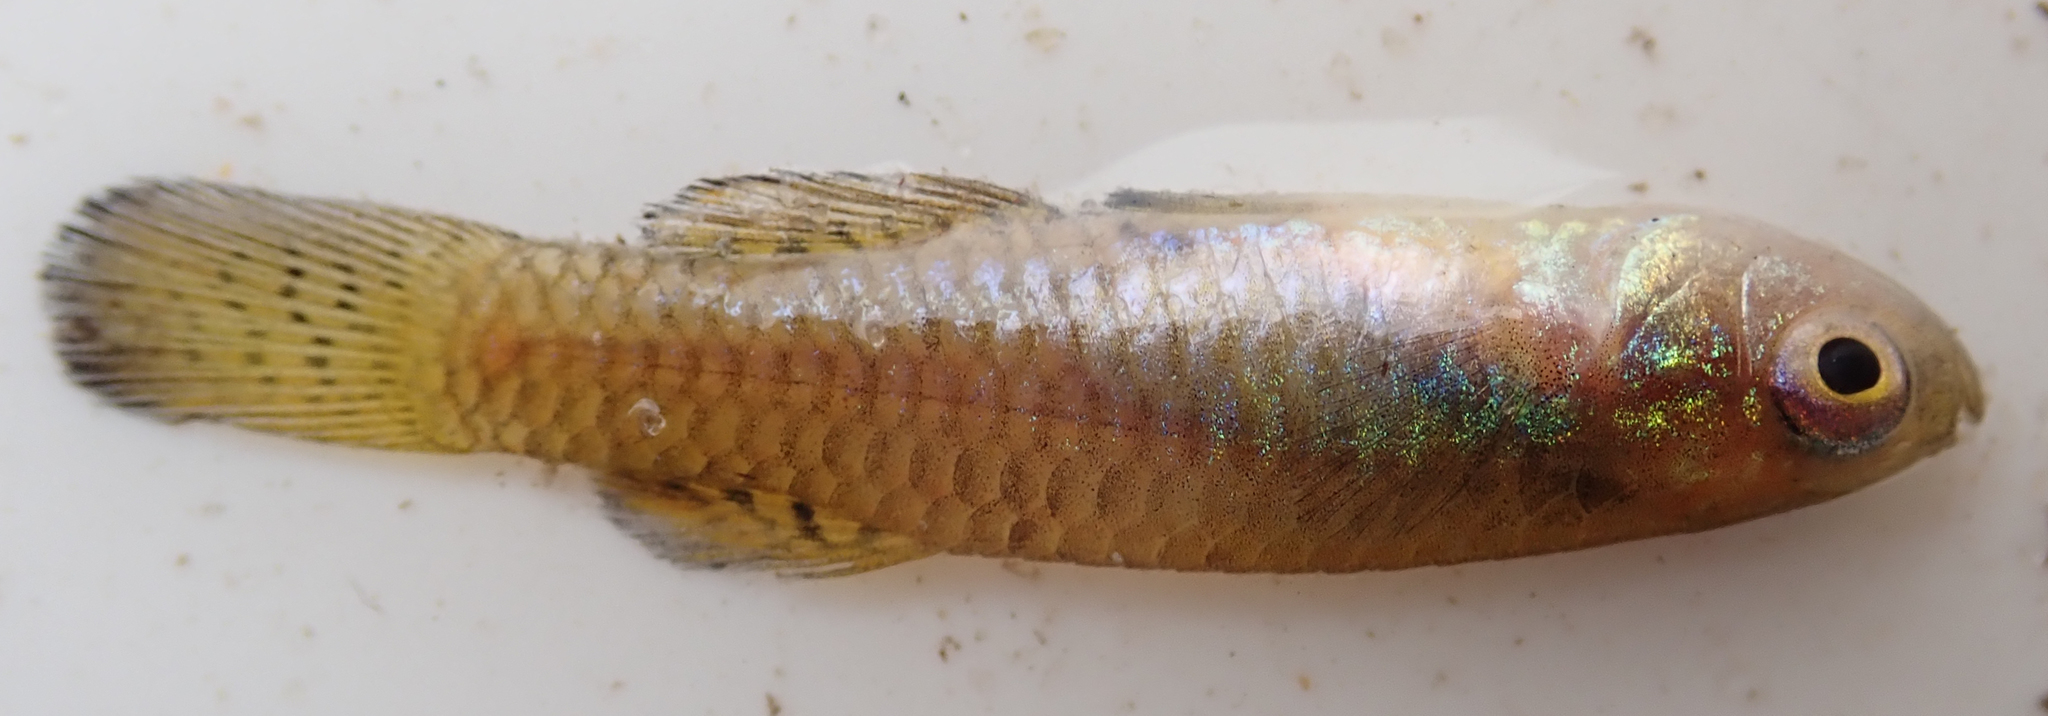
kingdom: Animalia
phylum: Chordata
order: Cyprinodontiformes
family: Poeciliidae
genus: Micropanchax
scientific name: Micropanchax hutereaui
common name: Meshscaled topminnow
